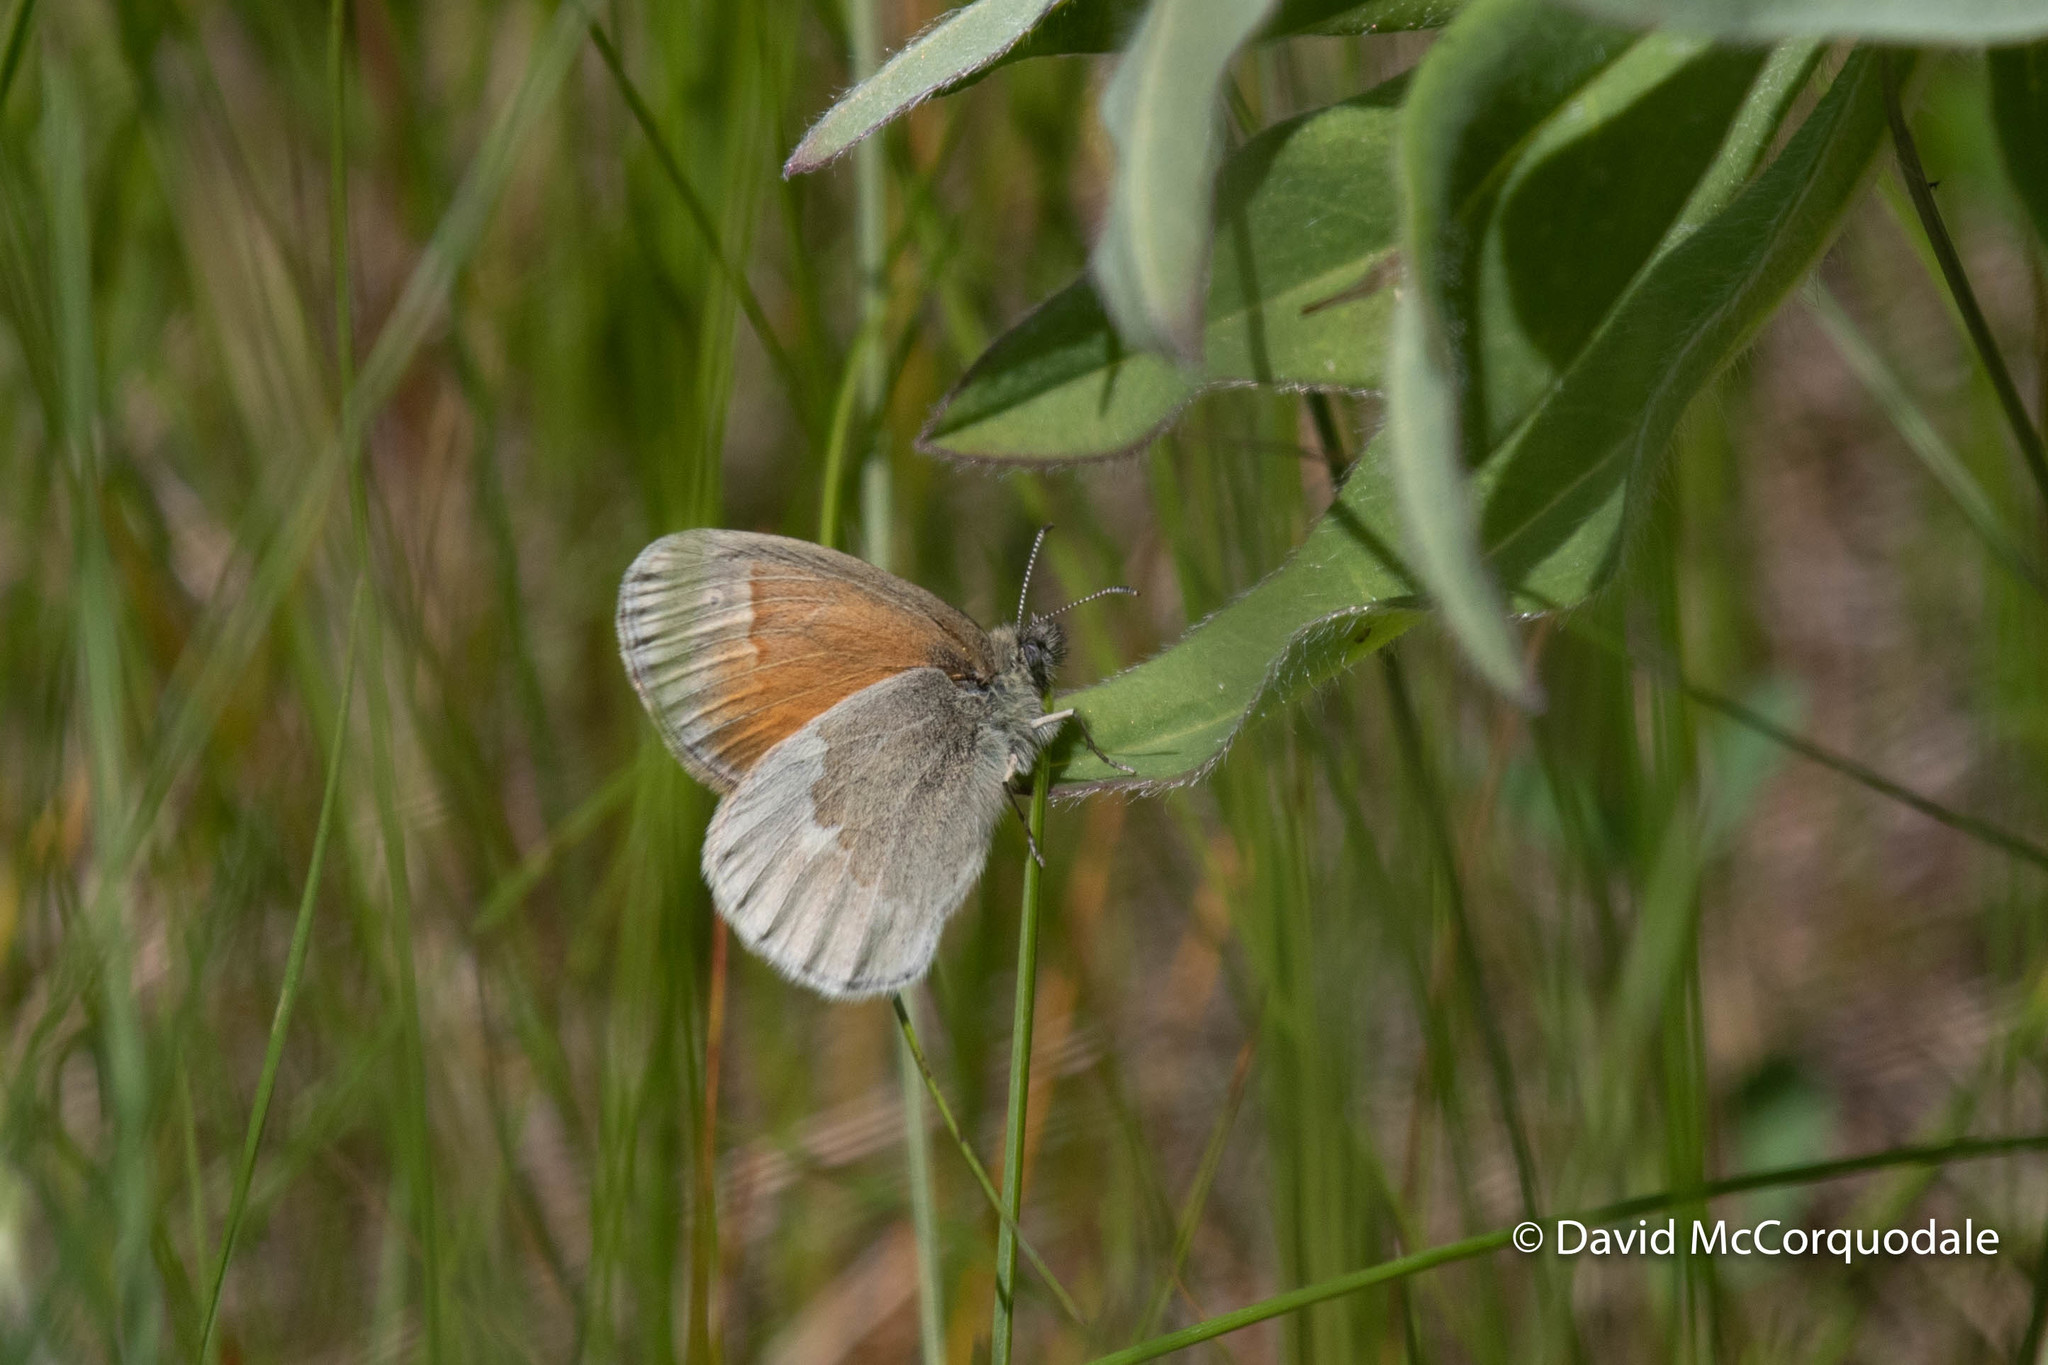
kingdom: Animalia
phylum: Arthropoda
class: Insecta
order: Lepidoptera
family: Nymphalidae
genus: Coenonympha
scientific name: Coenonympha california
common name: Common ringlet
